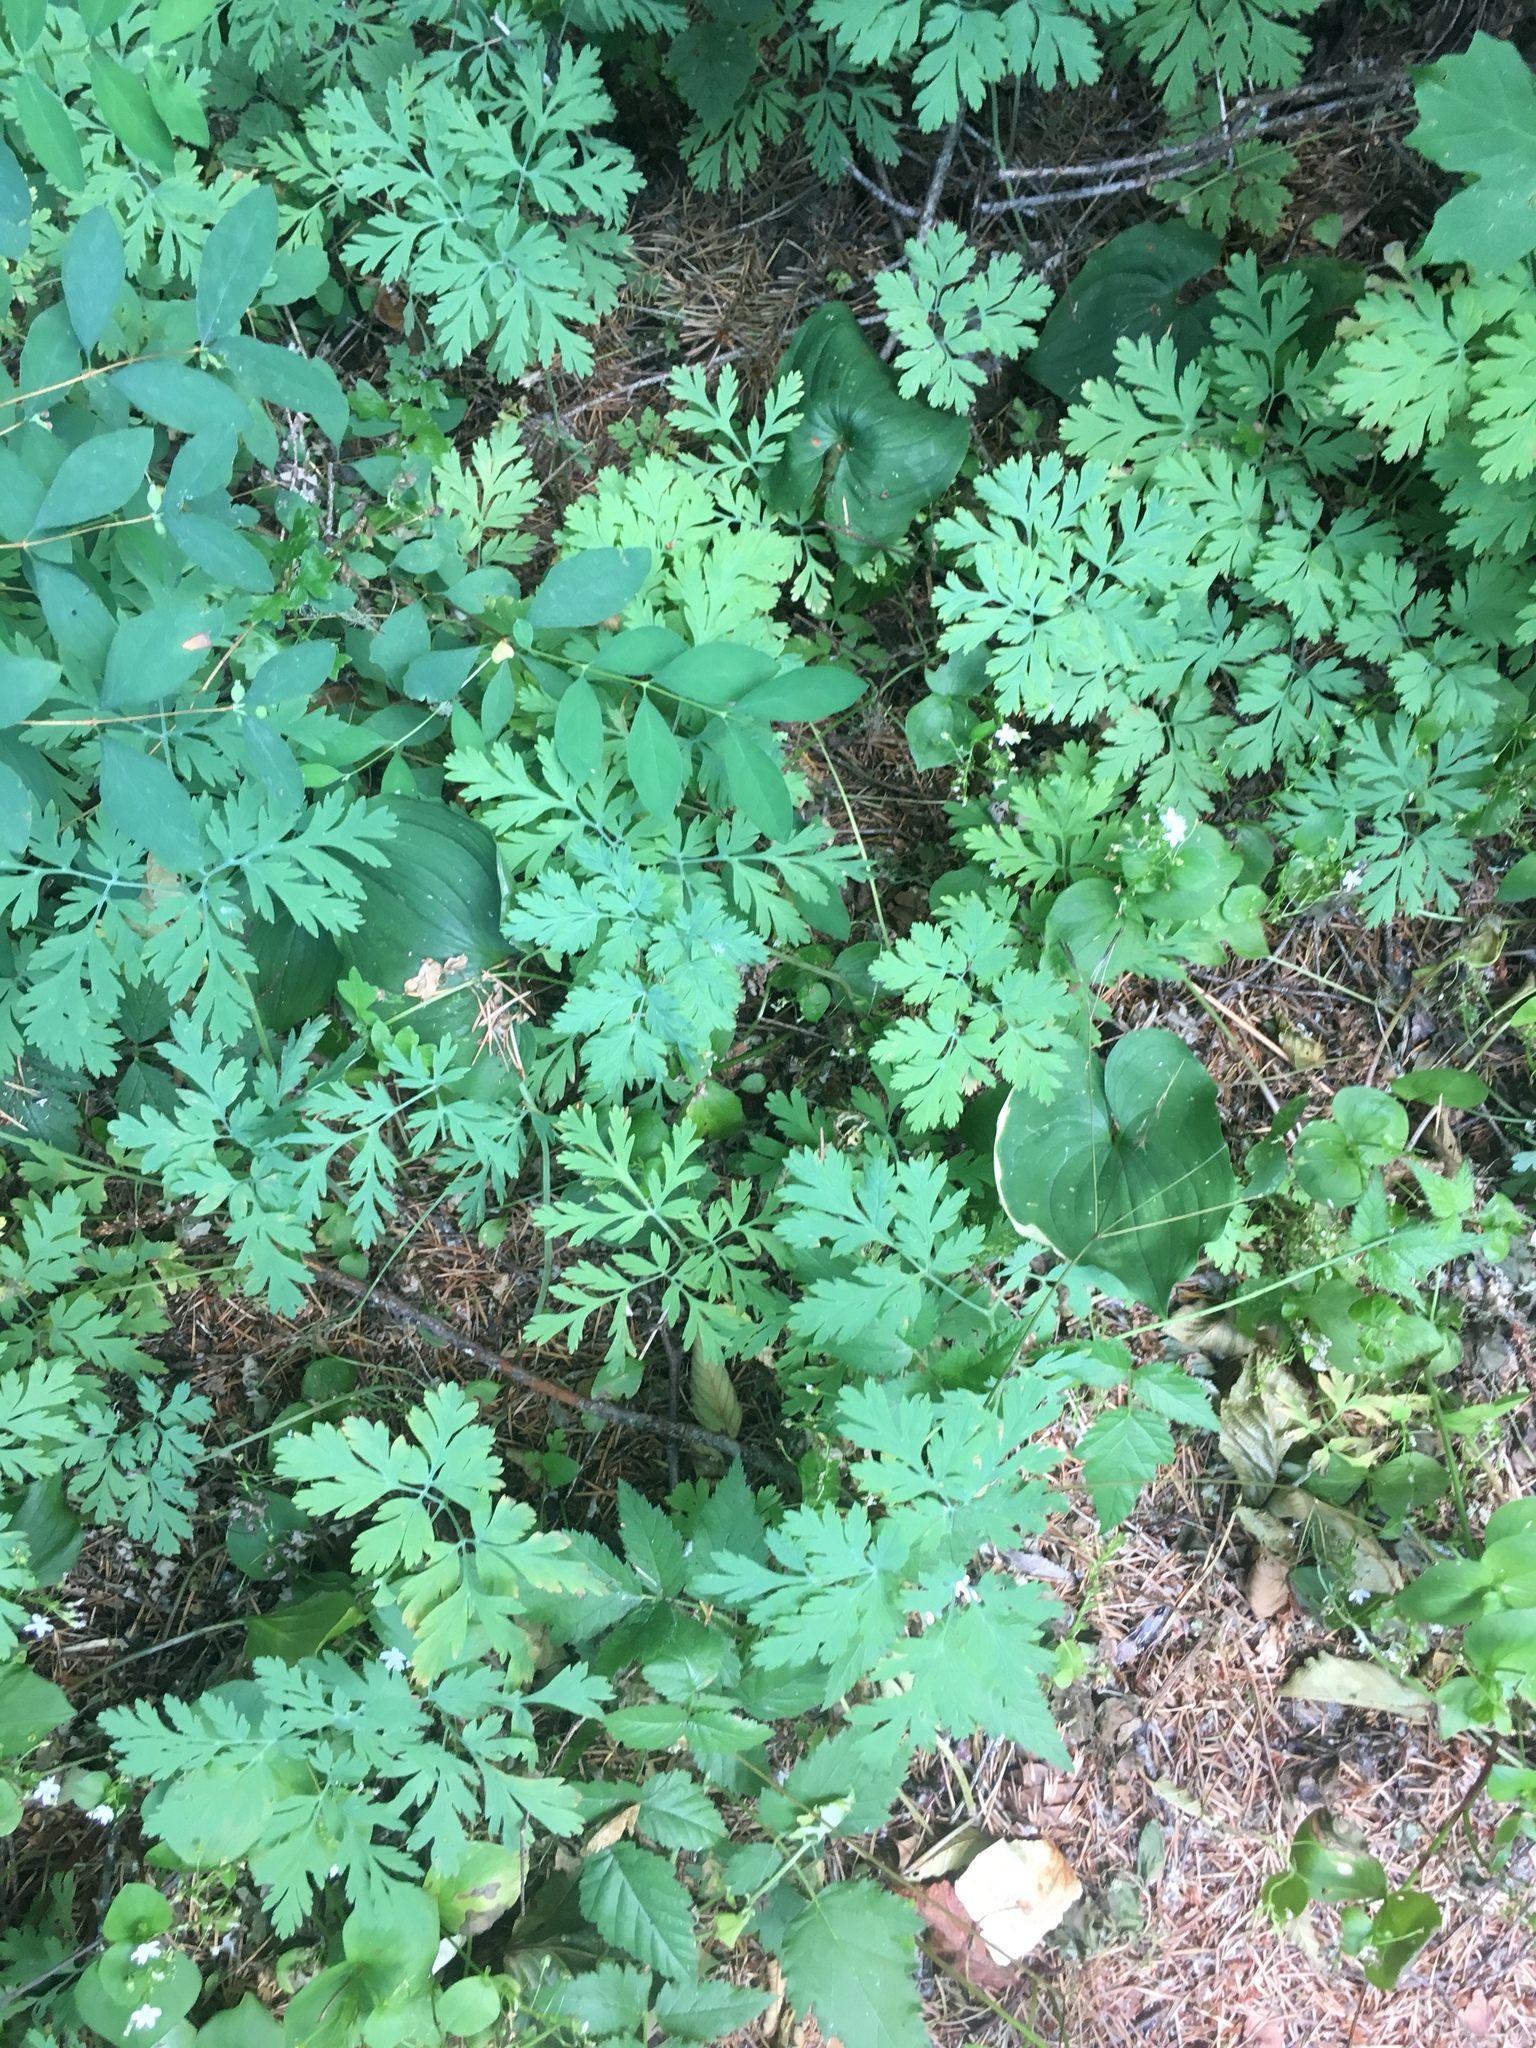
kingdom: Plantae
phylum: Tracheophyta
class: Magnoliopsida
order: Ranunculales
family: Papaveraceae
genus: Dicentra
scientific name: Dicentra formosa
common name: Bleeding-heart
